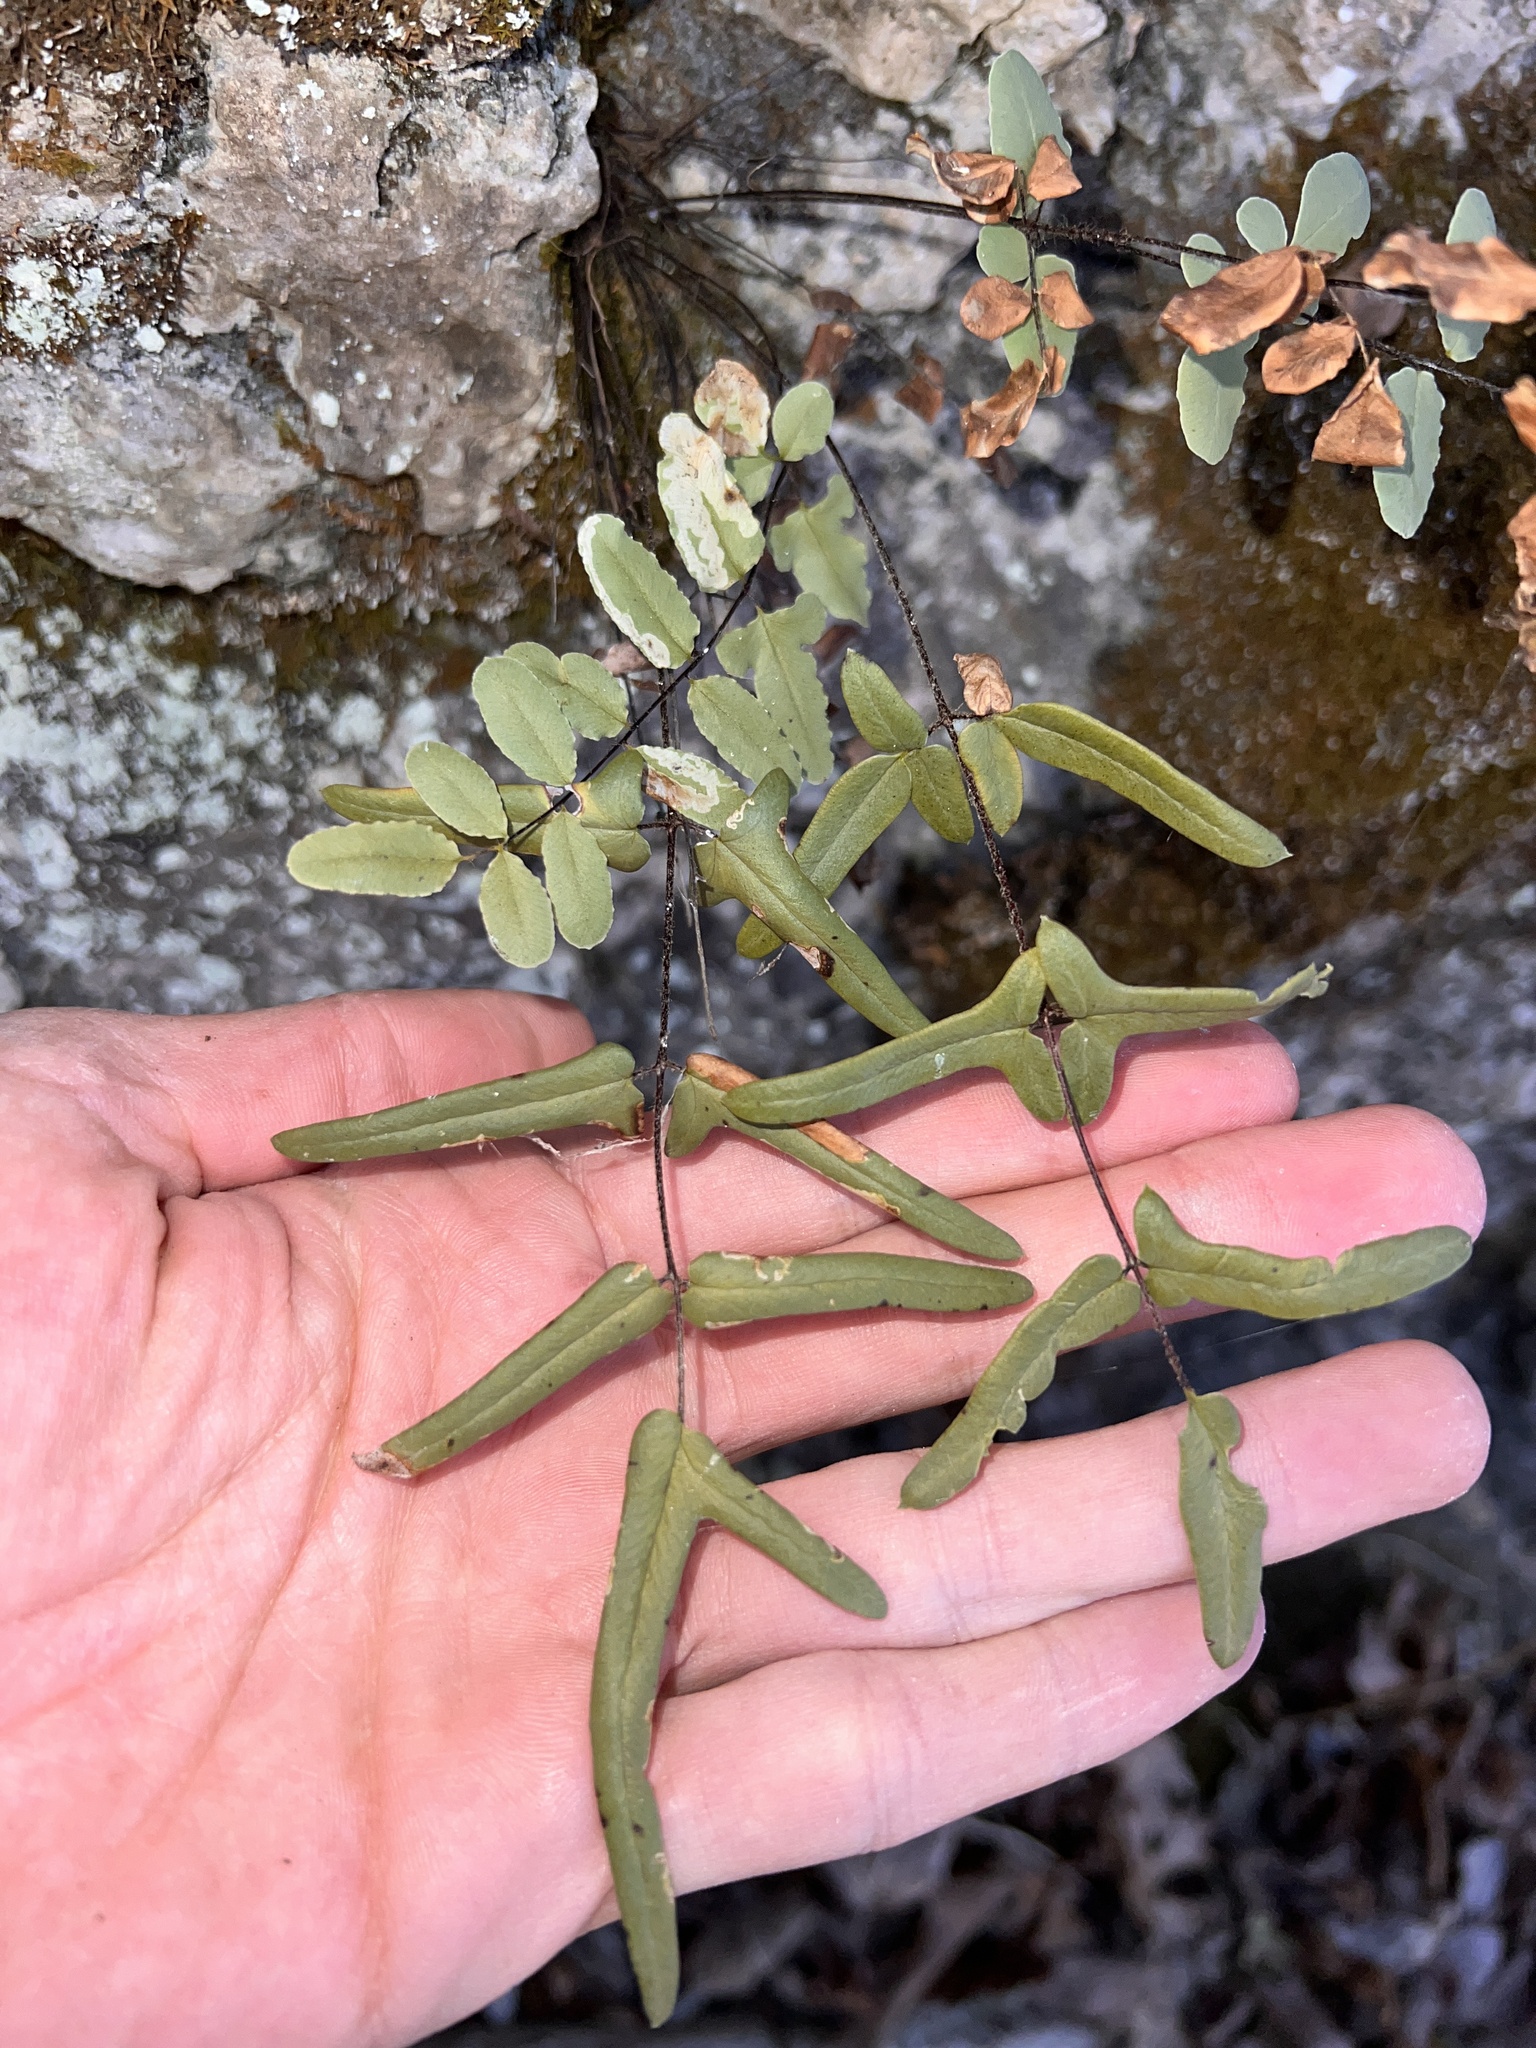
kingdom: Plantae
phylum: Tracheophyta
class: Polypodiopsida
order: Polypodiales
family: Pteridaceae
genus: Pellaea
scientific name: Pellaea atropurpurea
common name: Hairy cliffbrake
